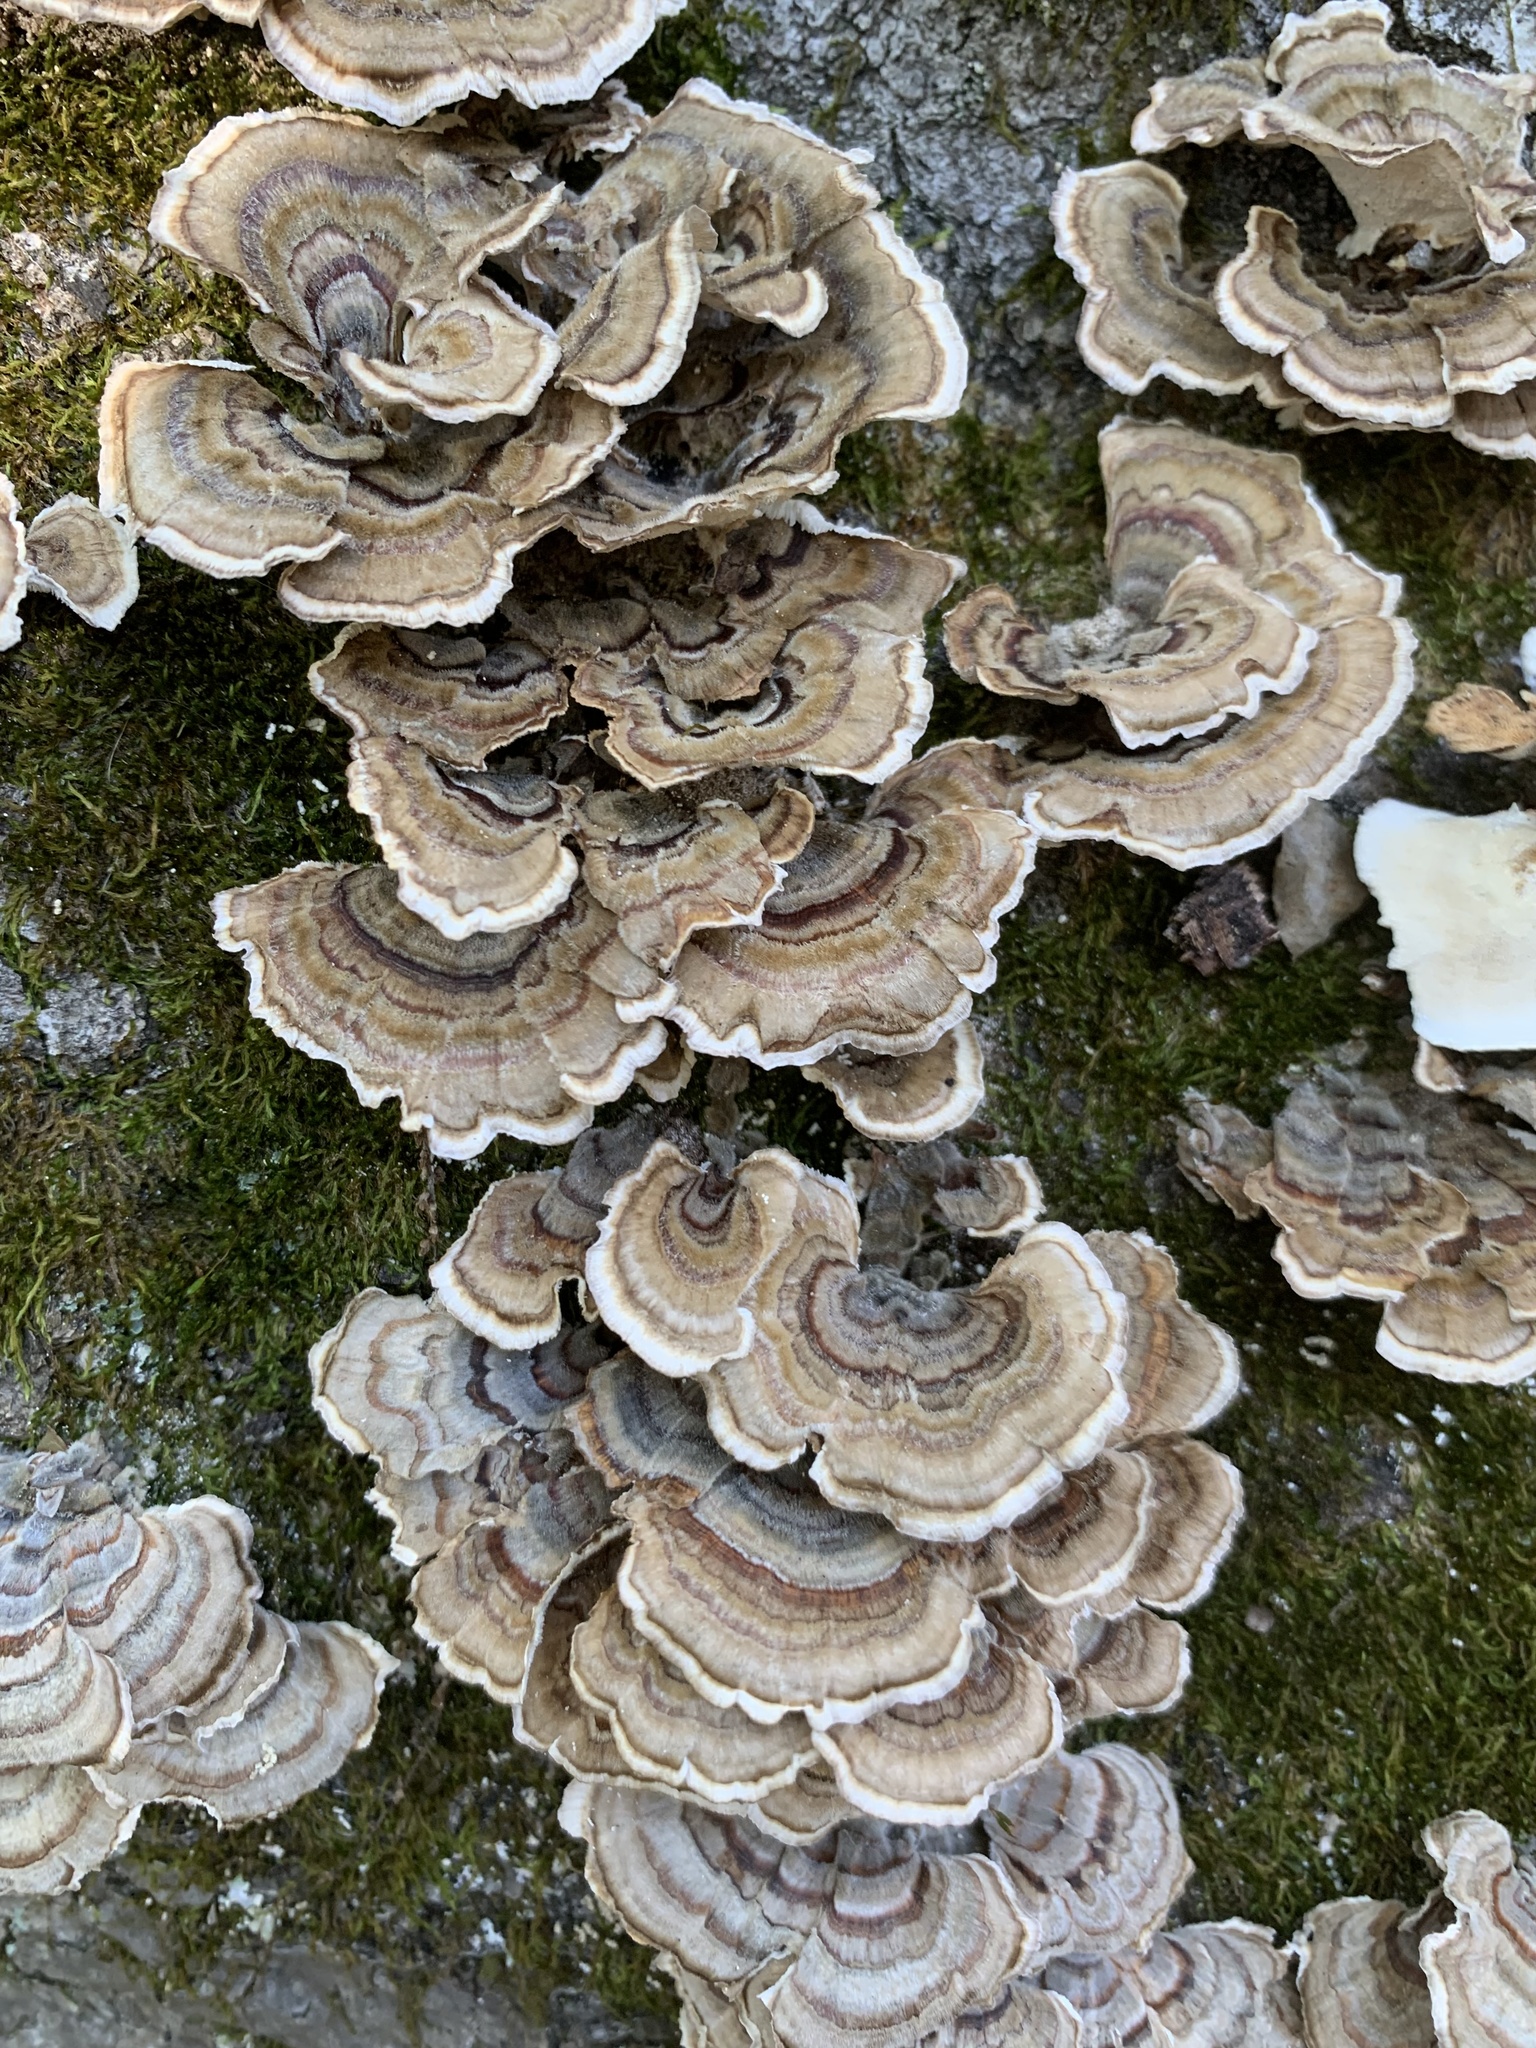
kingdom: Fungi
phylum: Basidiomycota
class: Agaricomycetes
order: Polyporales
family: Polyporaceae
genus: Trametes
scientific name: Trametes versicolor
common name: Turkeytail
